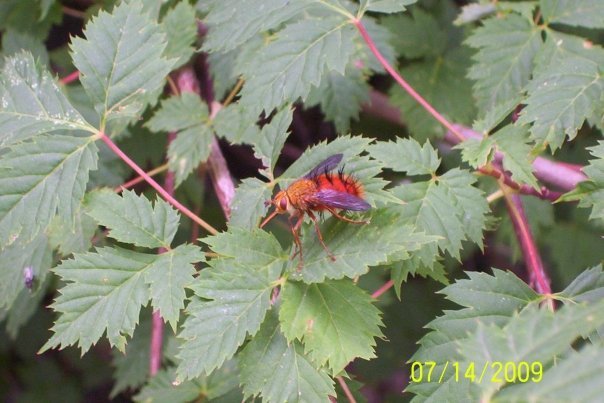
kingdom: Animalia
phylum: Arthropoda
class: Insecta
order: Diptera
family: Tachinidae
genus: Adejeania
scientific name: Adejeania vexatrix
